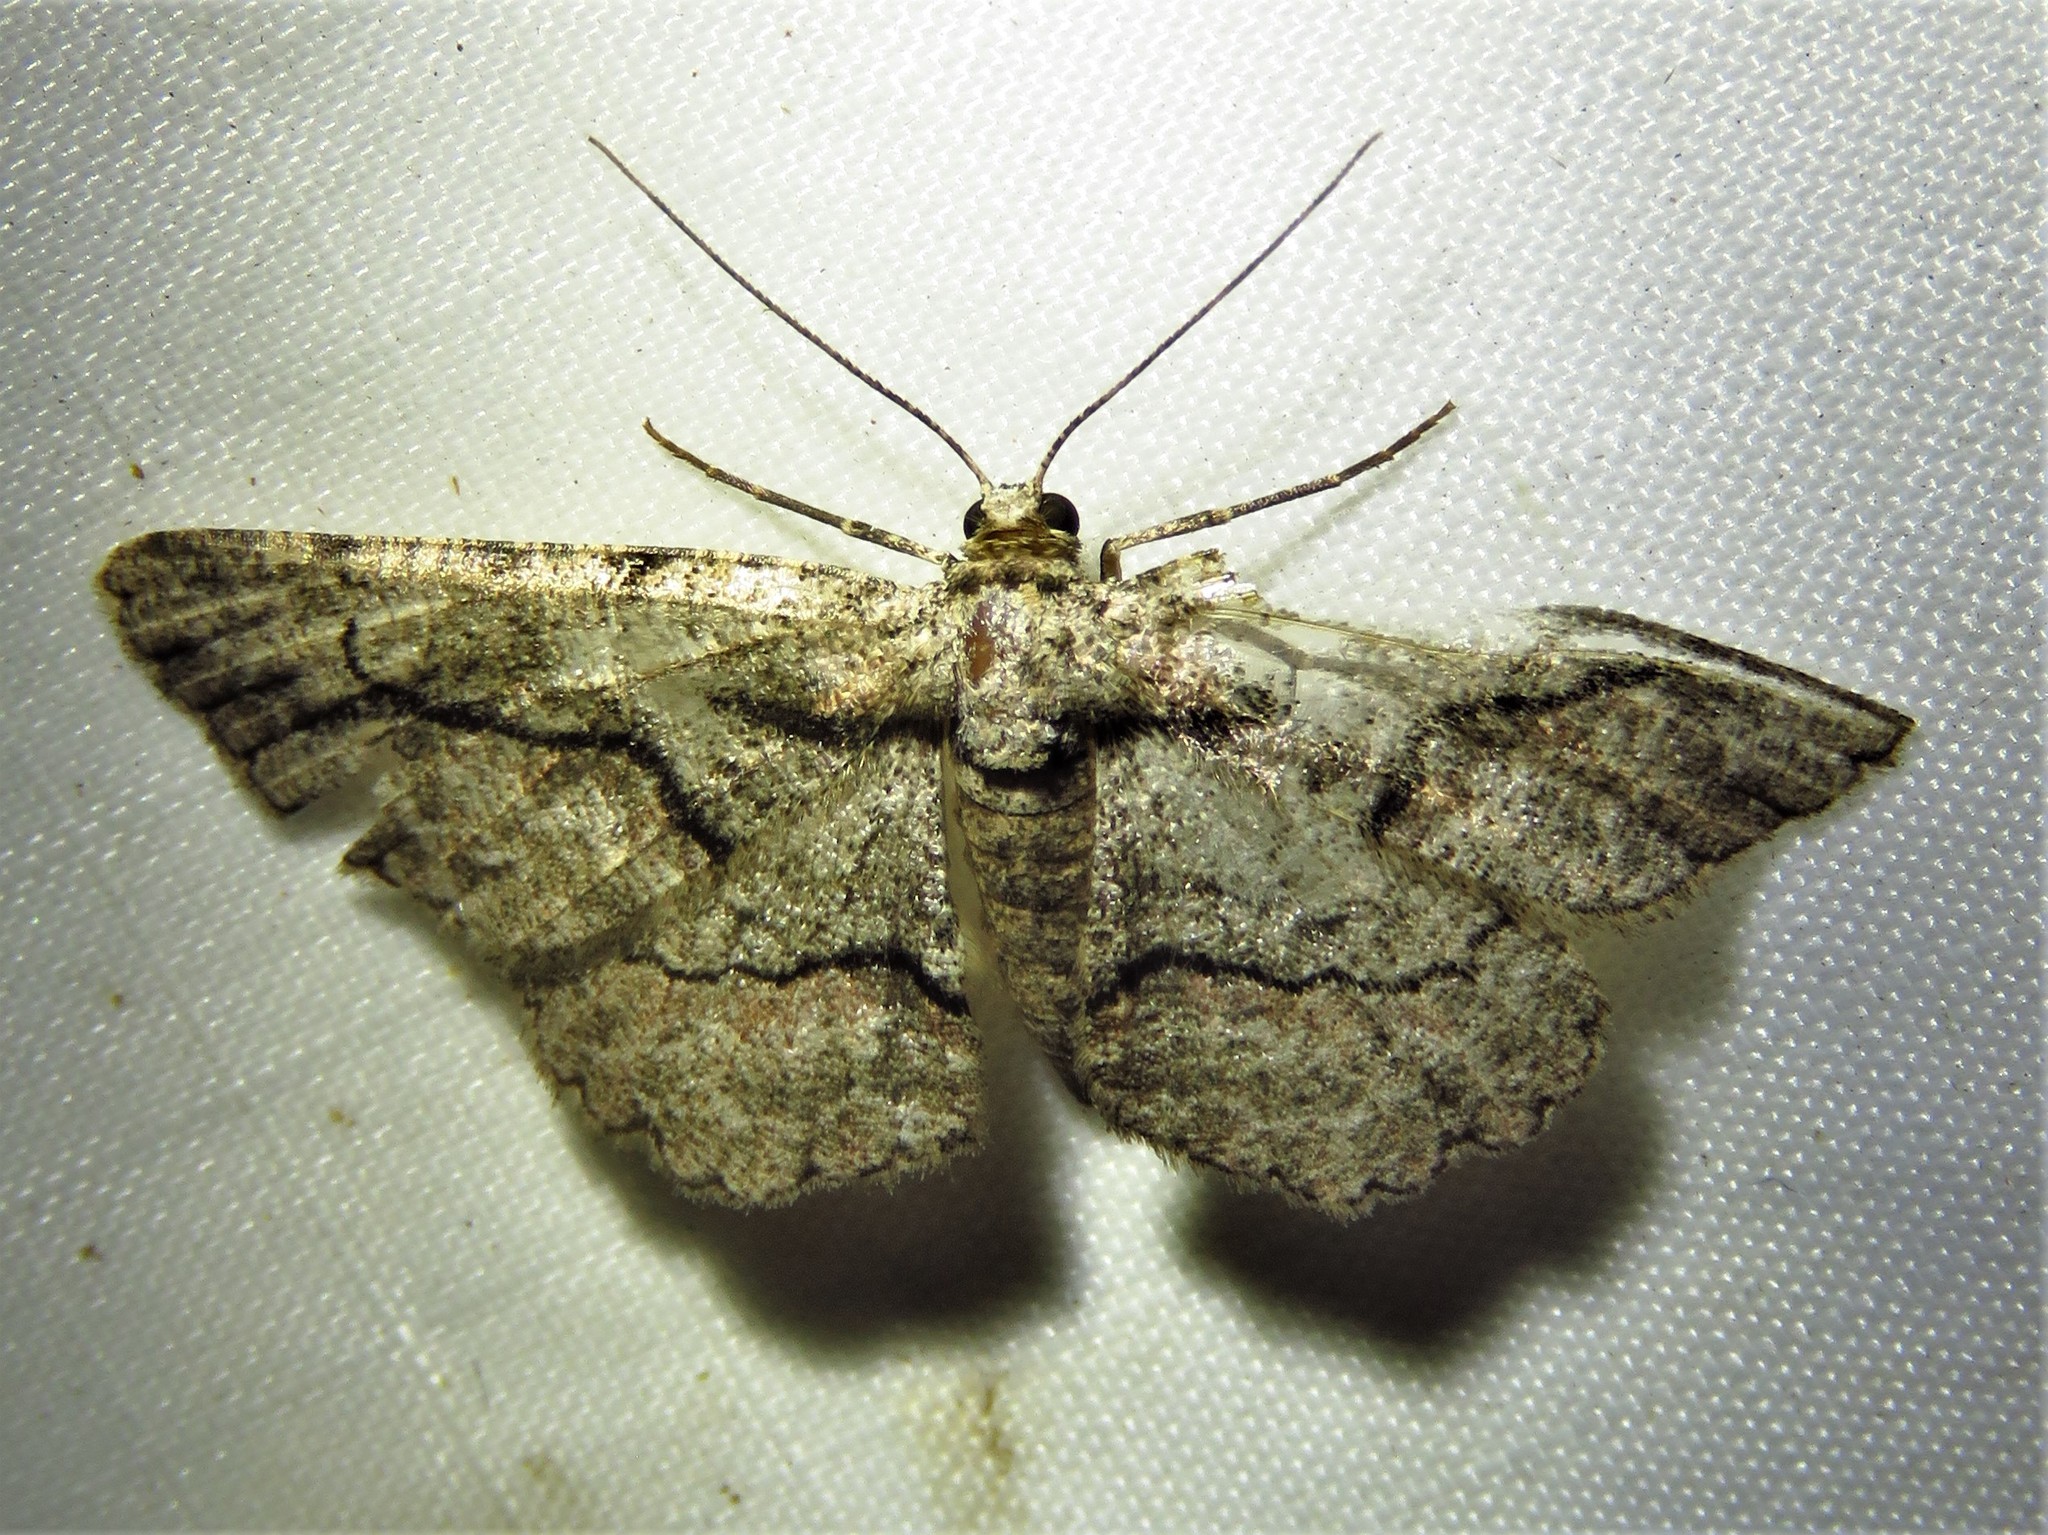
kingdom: Animalia
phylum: Arthropoda
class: Insecta
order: Lepidoptera
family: Geometridae
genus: Anavitrinella
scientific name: Anavitrinella atristrigaria
